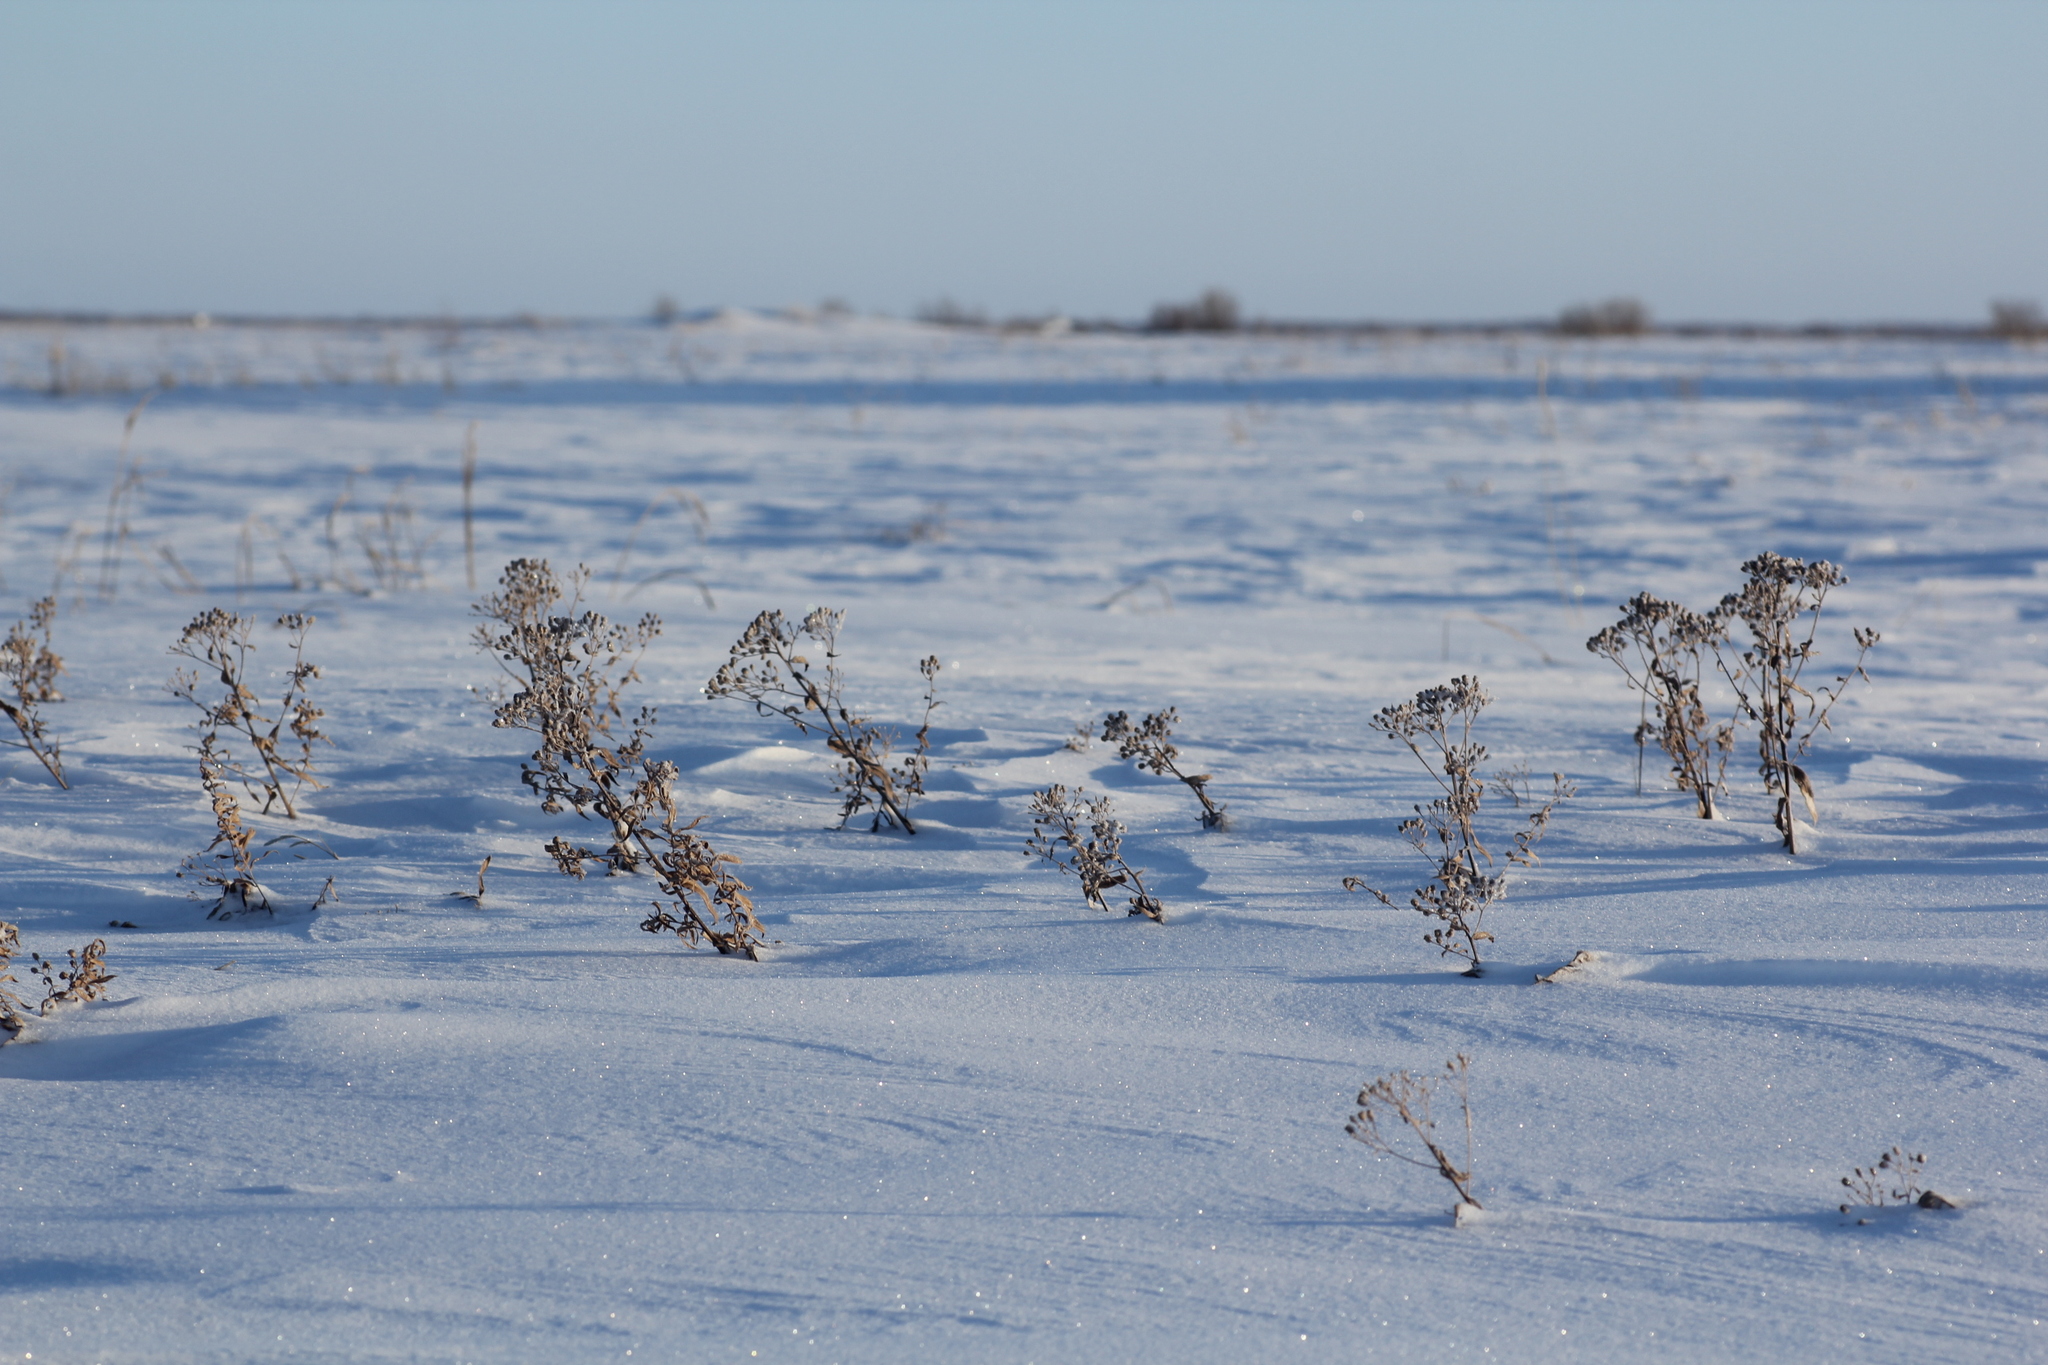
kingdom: Plantae
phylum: Tracheophyta
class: Magnoliopsida
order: Asterales
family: Asteraceae
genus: Achillea
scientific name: Achillea salicifolia
